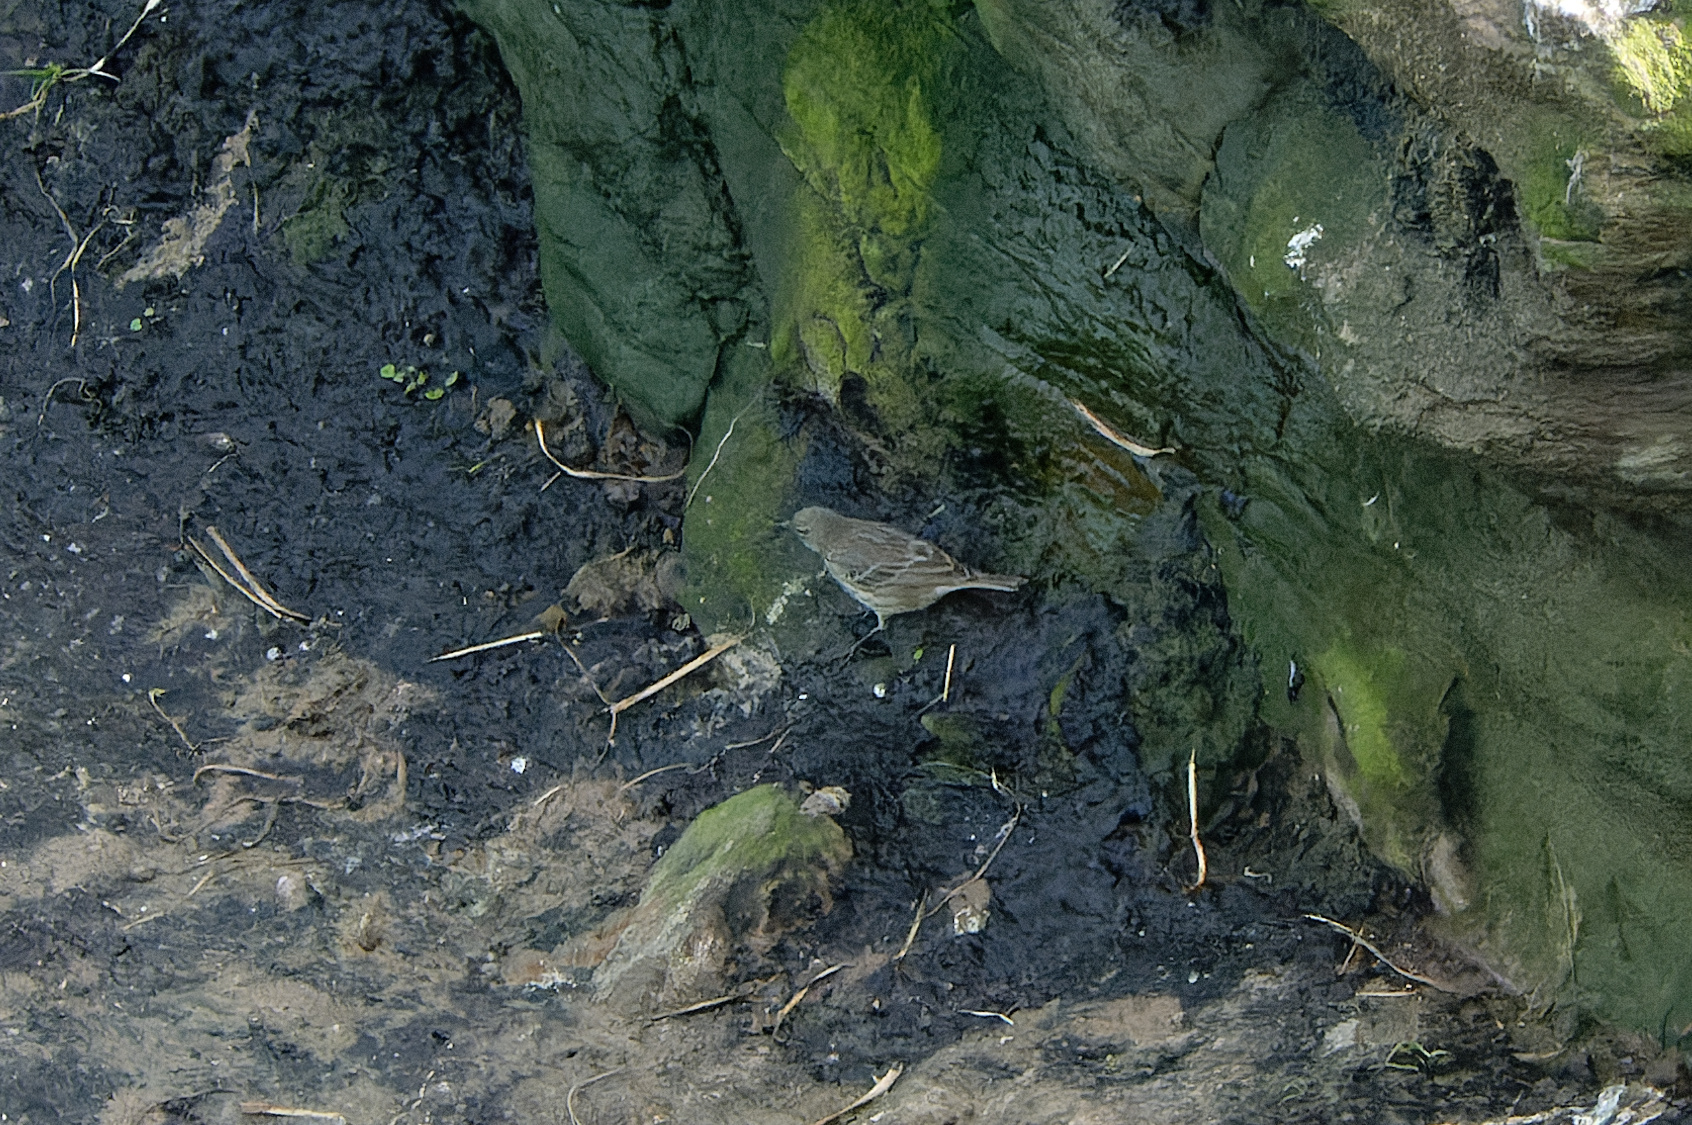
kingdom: Animalia
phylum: Chordata
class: Aves
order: Passeriformes
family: Motacillidae
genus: Anthus
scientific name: Anthus petrosus
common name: Eurasian rock pipit
